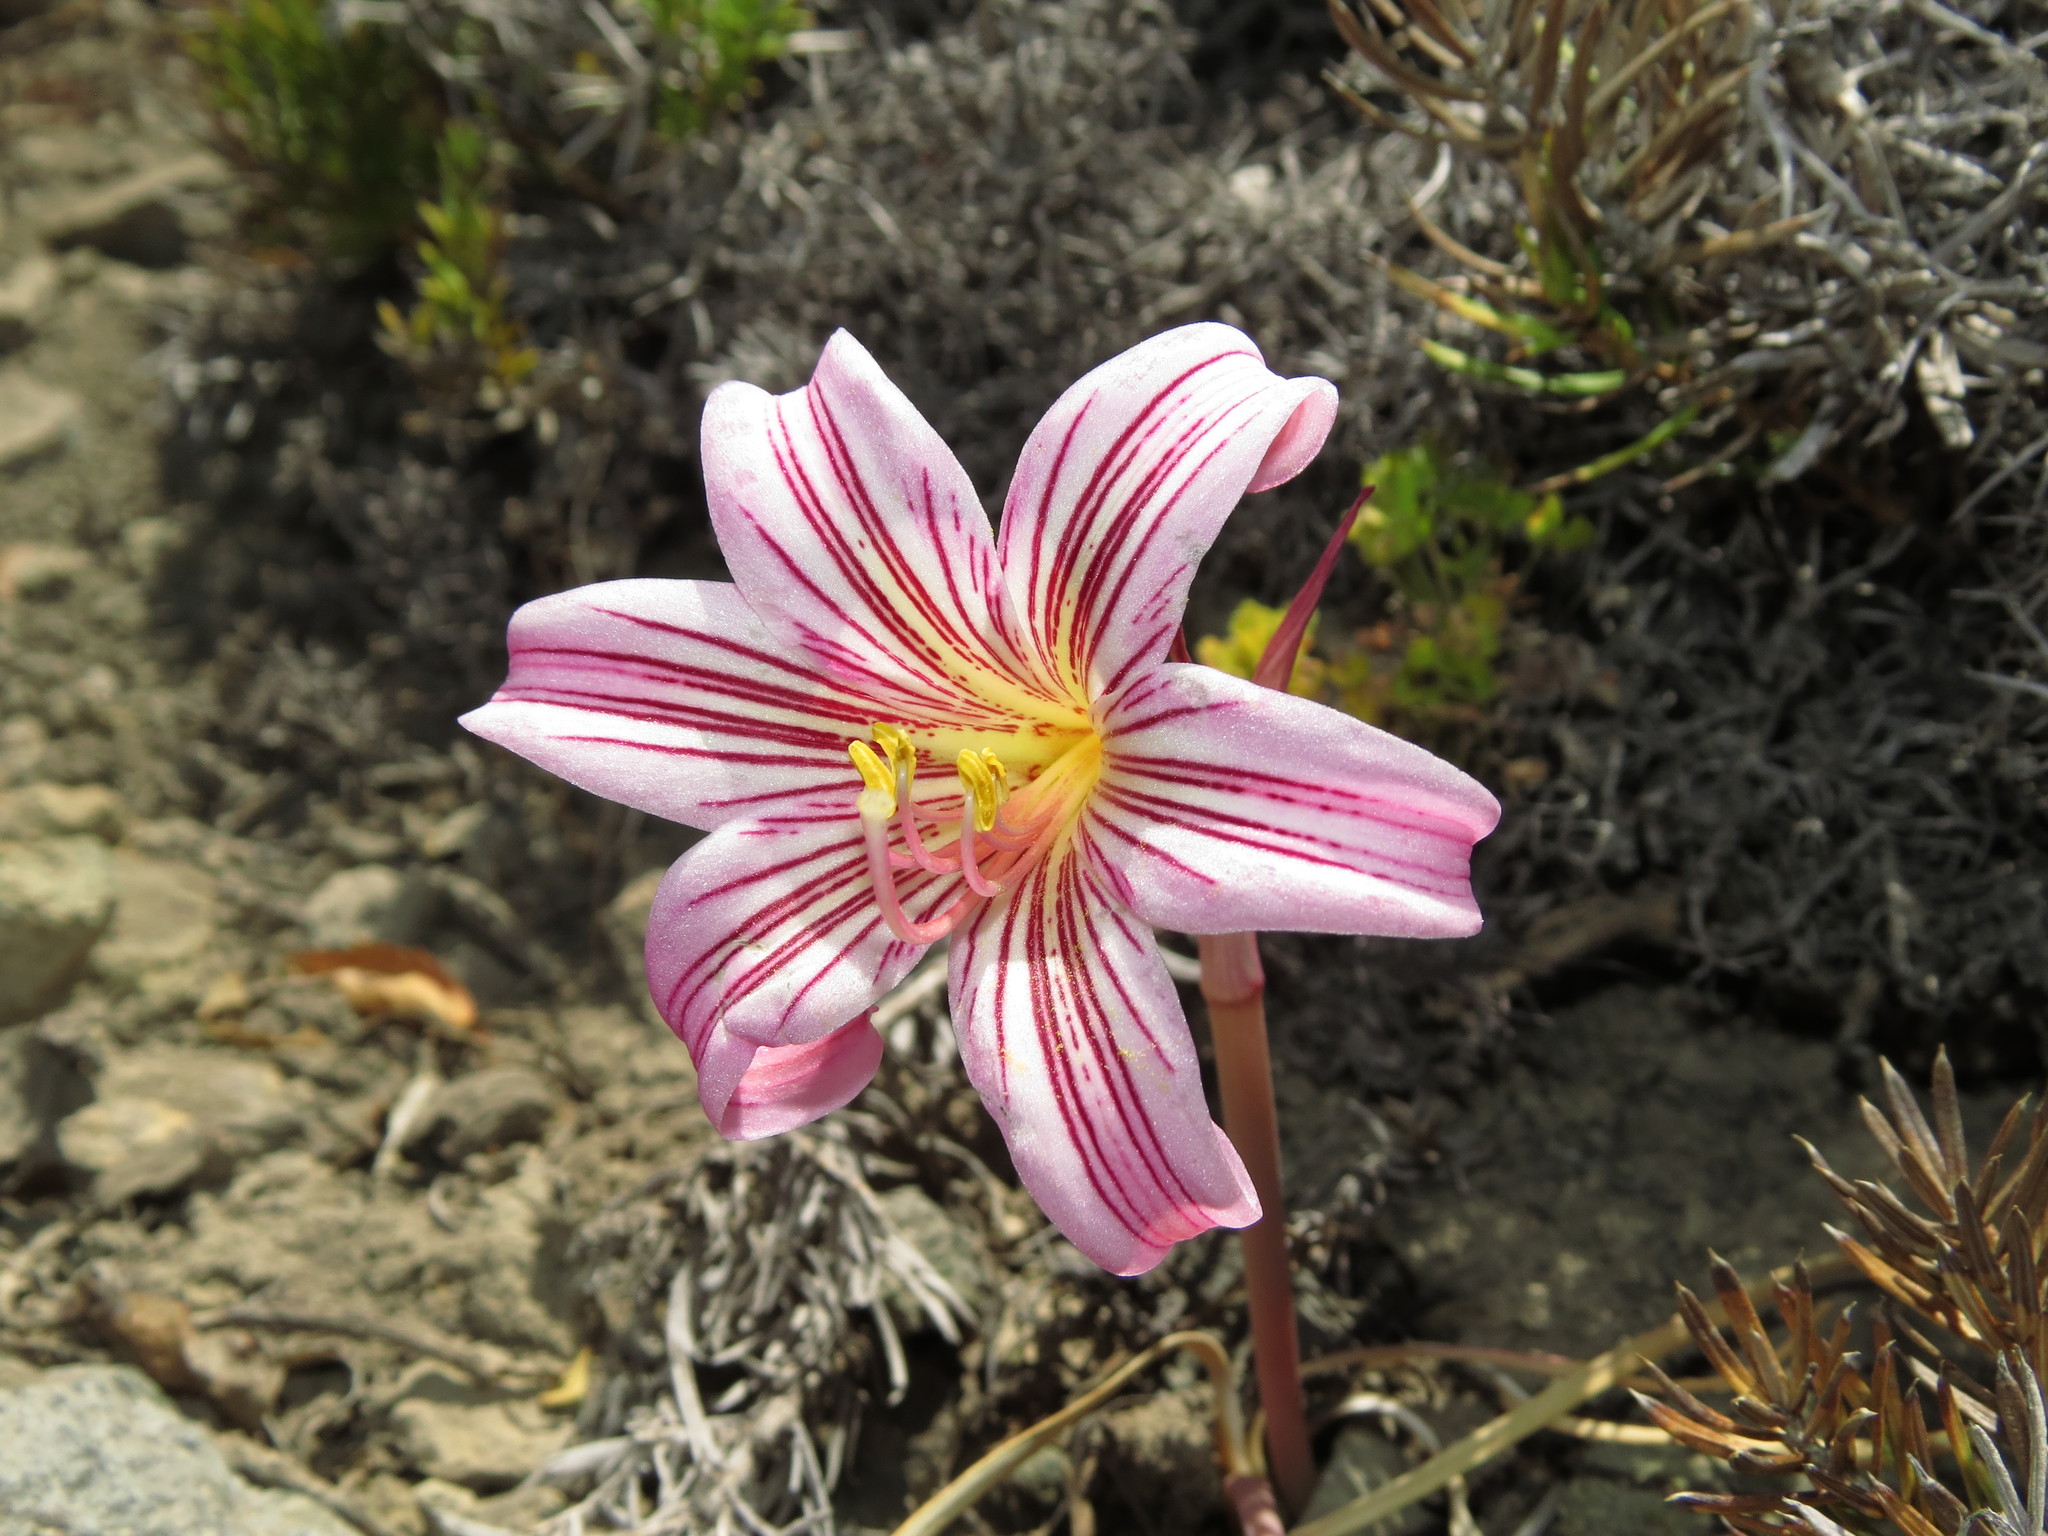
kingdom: Plantae
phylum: Tracheophyta
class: Liliopsida
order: Asparagales
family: Amaryllidaceae
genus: Rhodolirium
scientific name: Rhodolirium montanum
